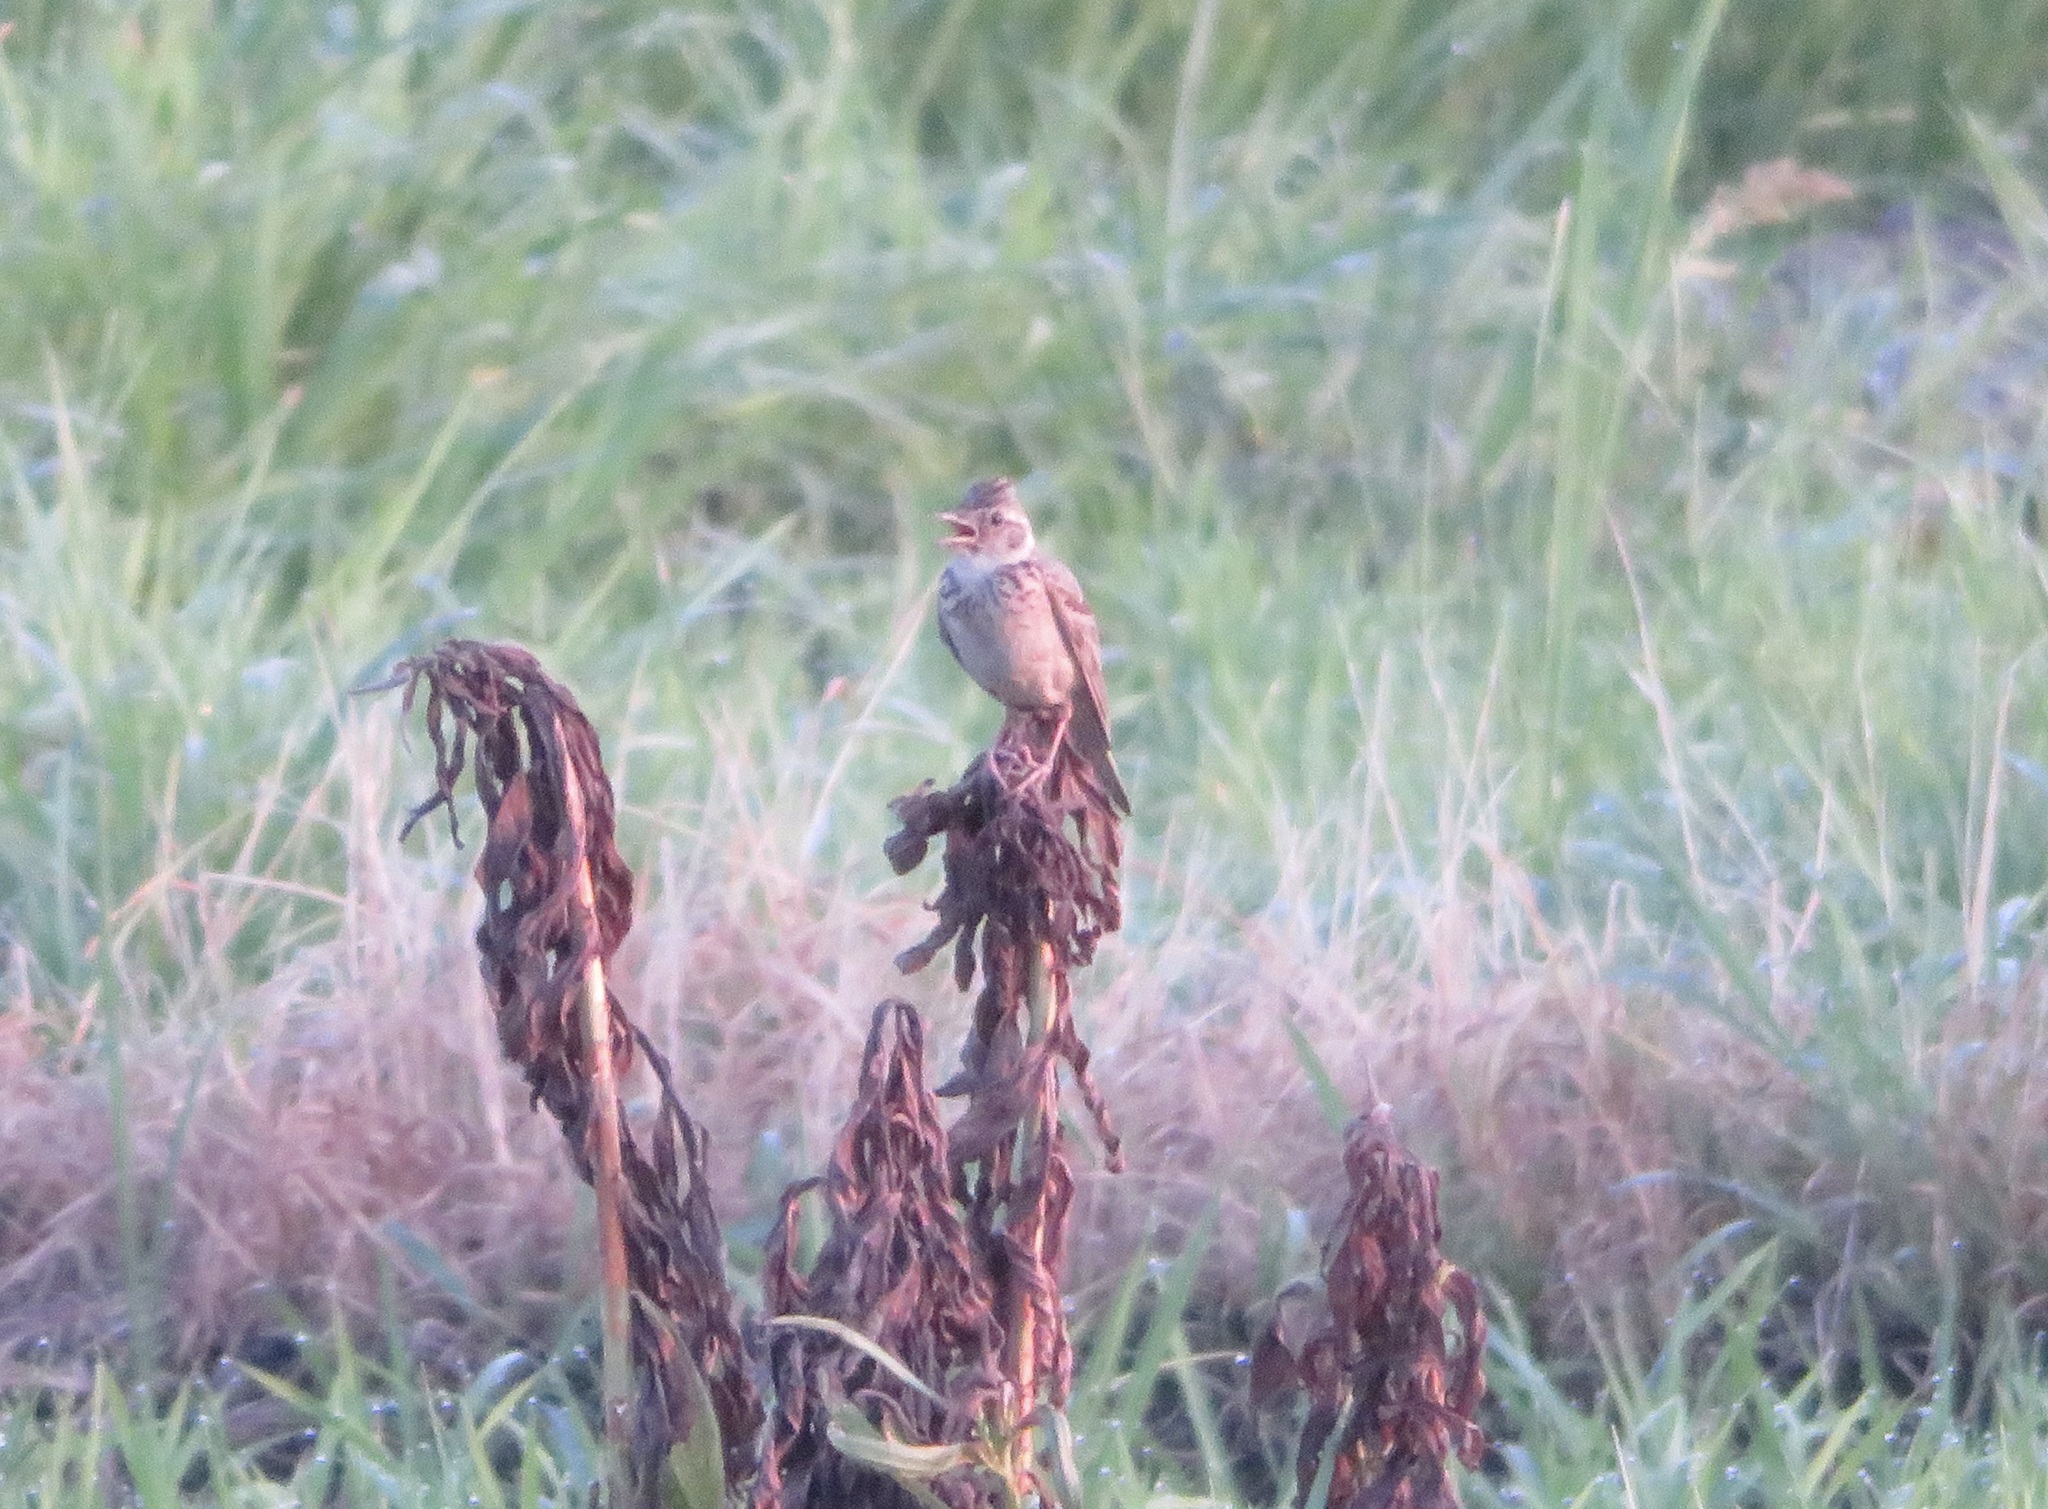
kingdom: Animalia
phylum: Chordata
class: Aves
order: Passeriformes
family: Alaudidae
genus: Alauda
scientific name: Alauda arvensis
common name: Eurasian skylark
